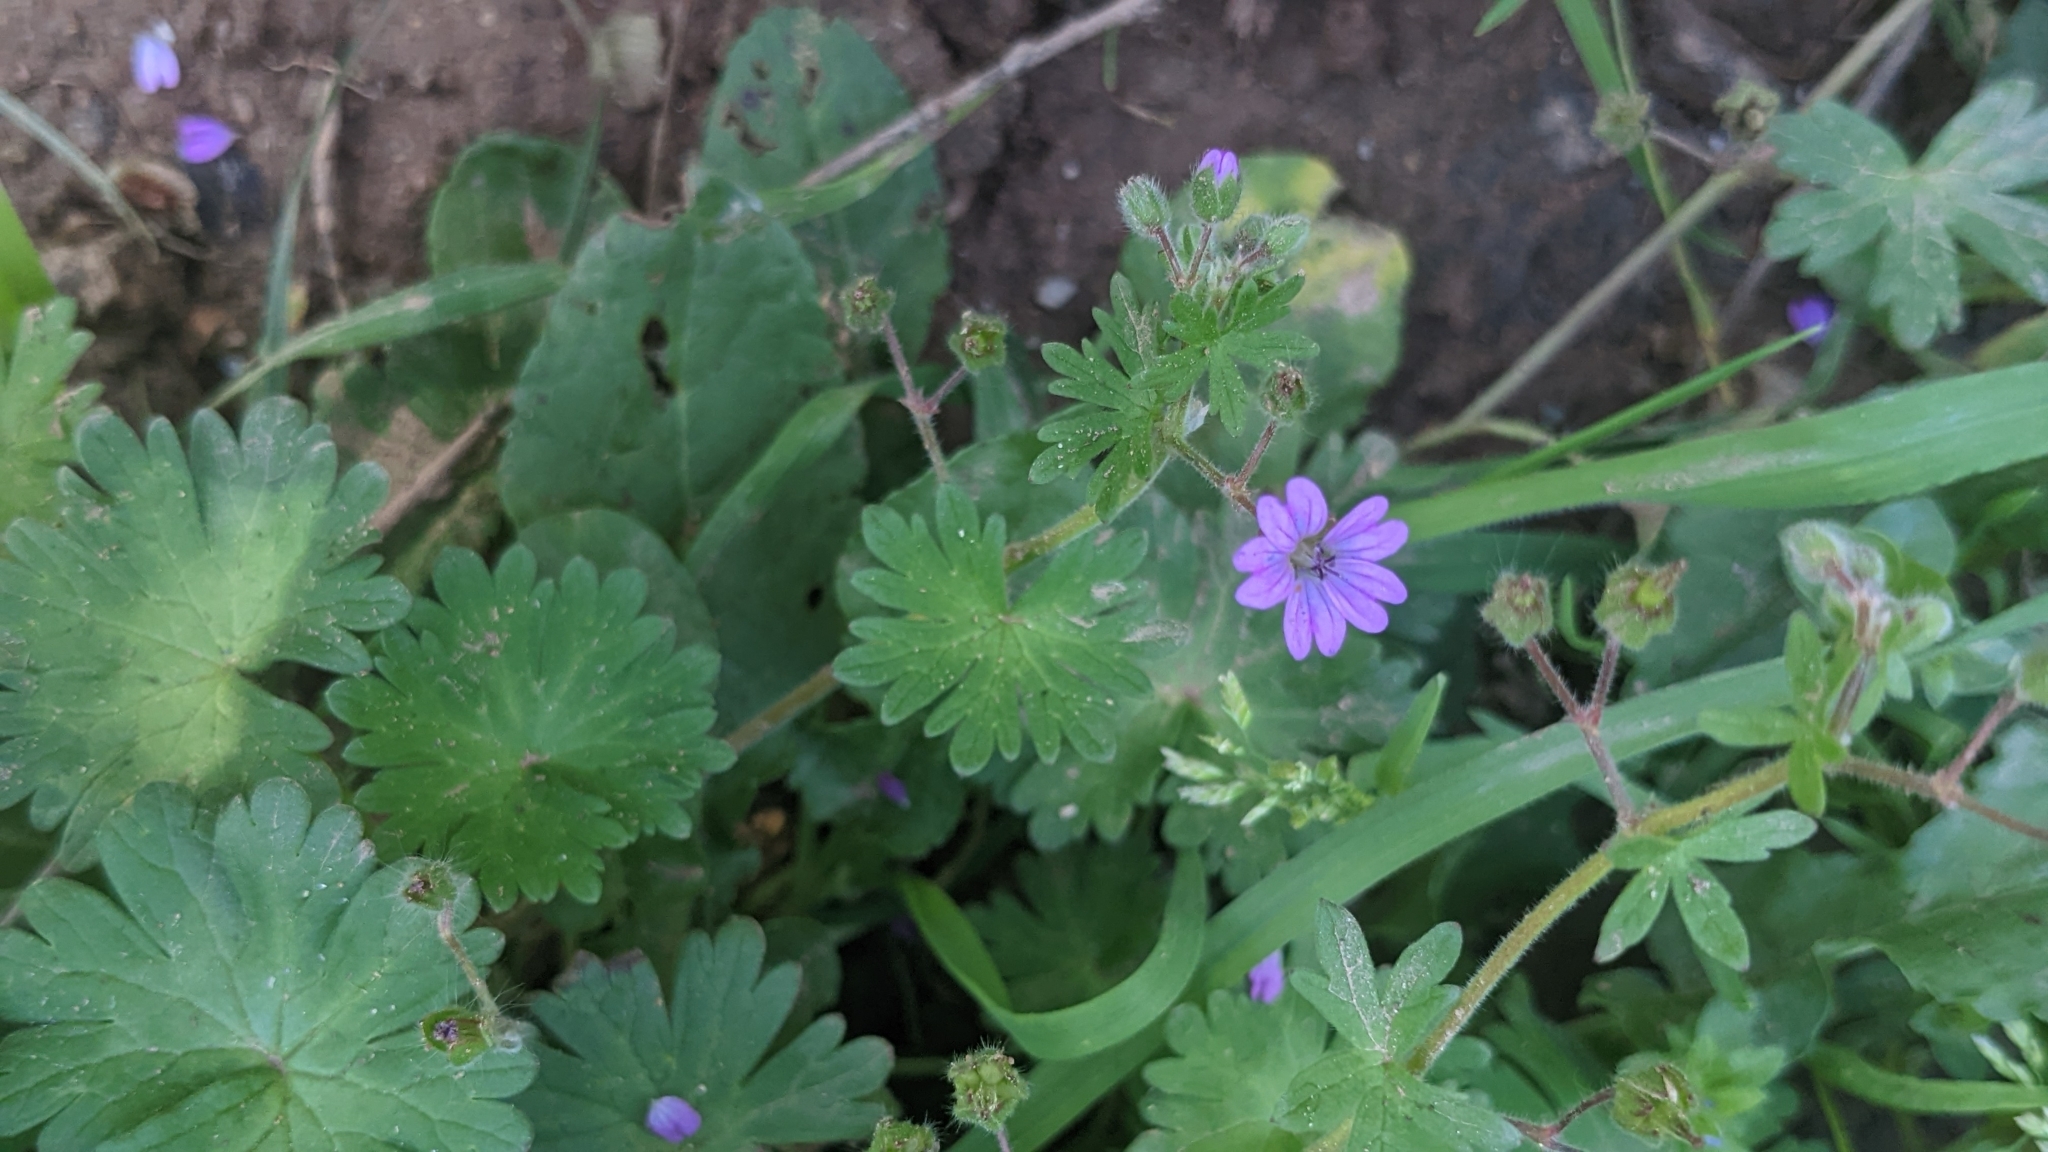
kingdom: Plantae
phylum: Tracheophyta
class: Magnoliopsida
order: Geraniales
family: Geraniaceae
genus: Geranium
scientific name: Geranium molle
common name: Dove's-foot crane's-bill
